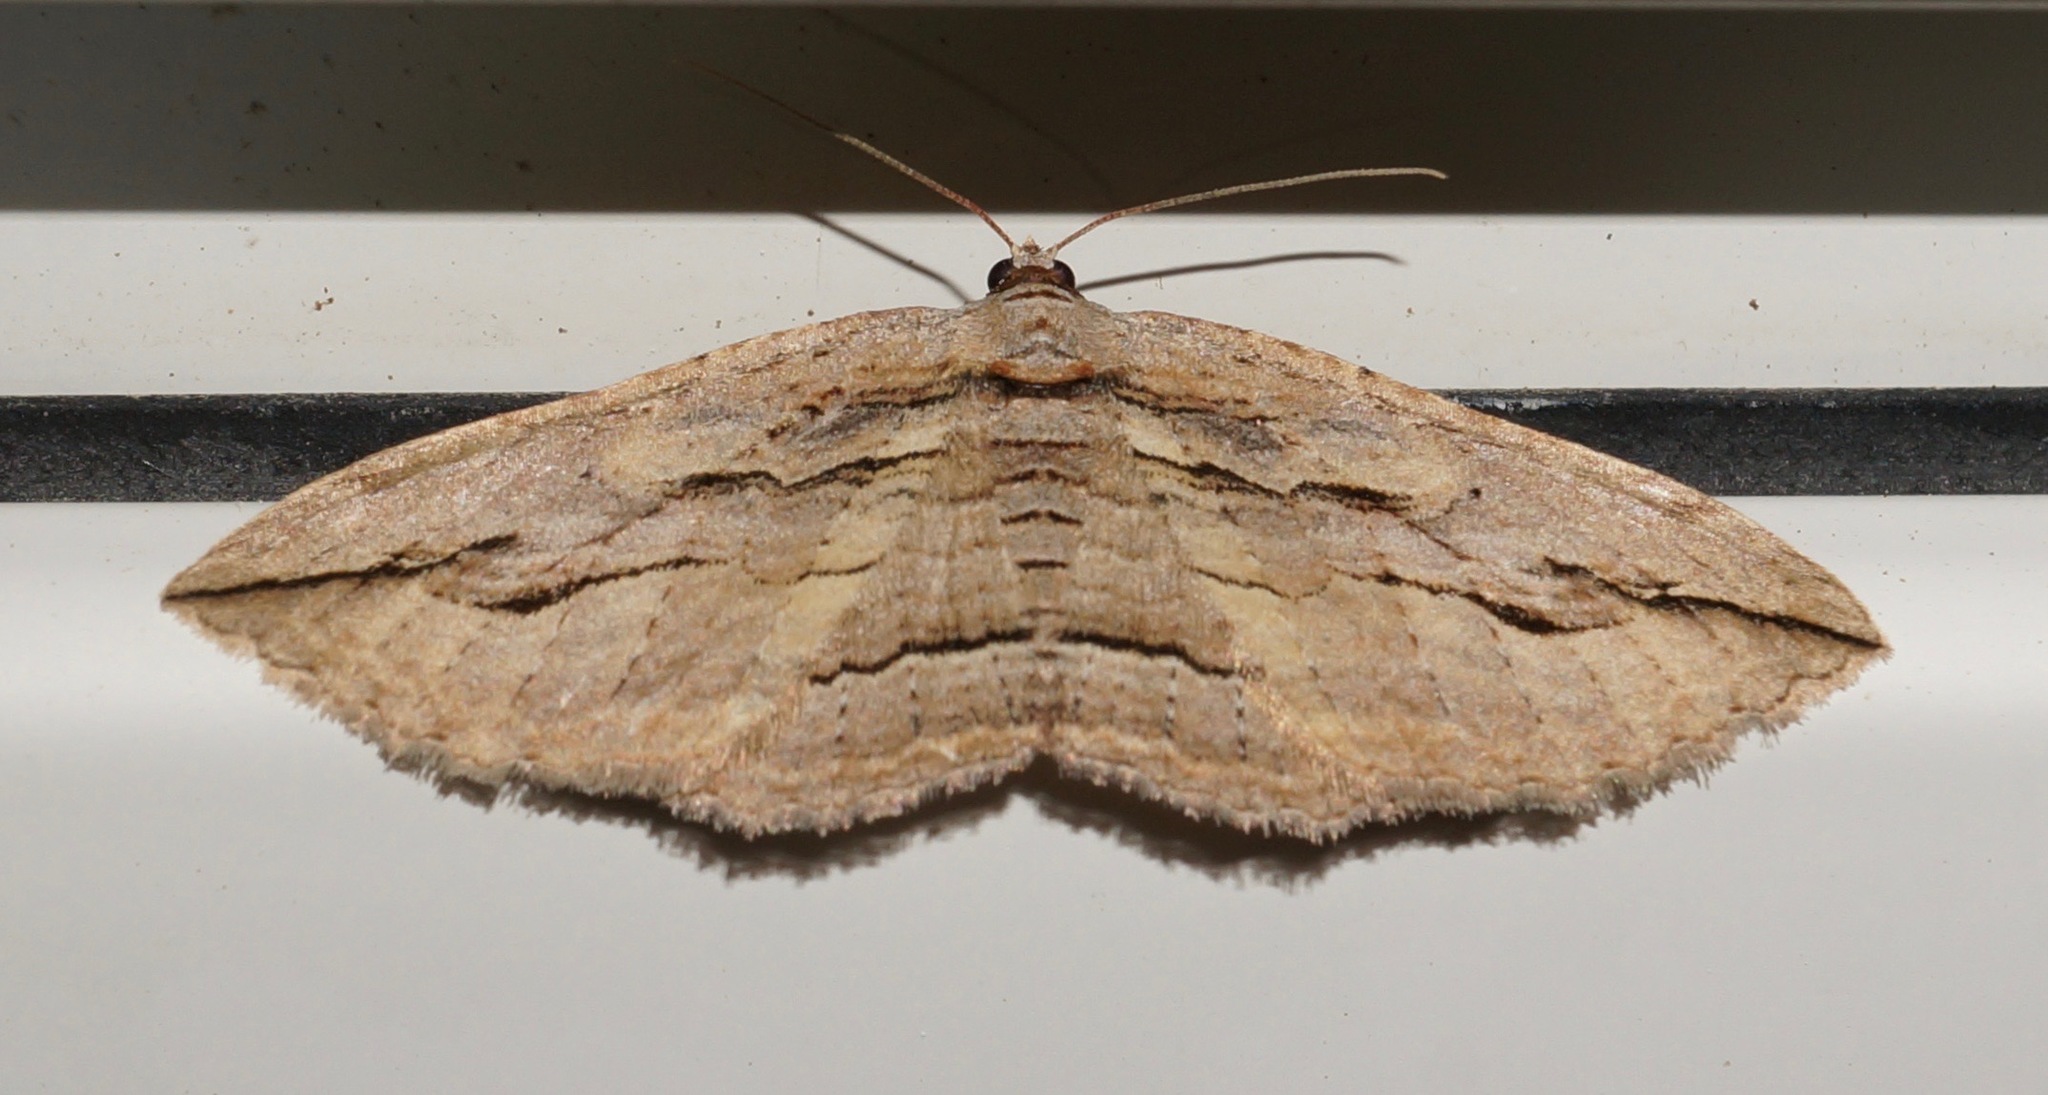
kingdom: Animalia
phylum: Arthropoda
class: Insecta
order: Lepidoptera
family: Geometridae
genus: Austrocidaria
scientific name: Austrocidaria gobiata
